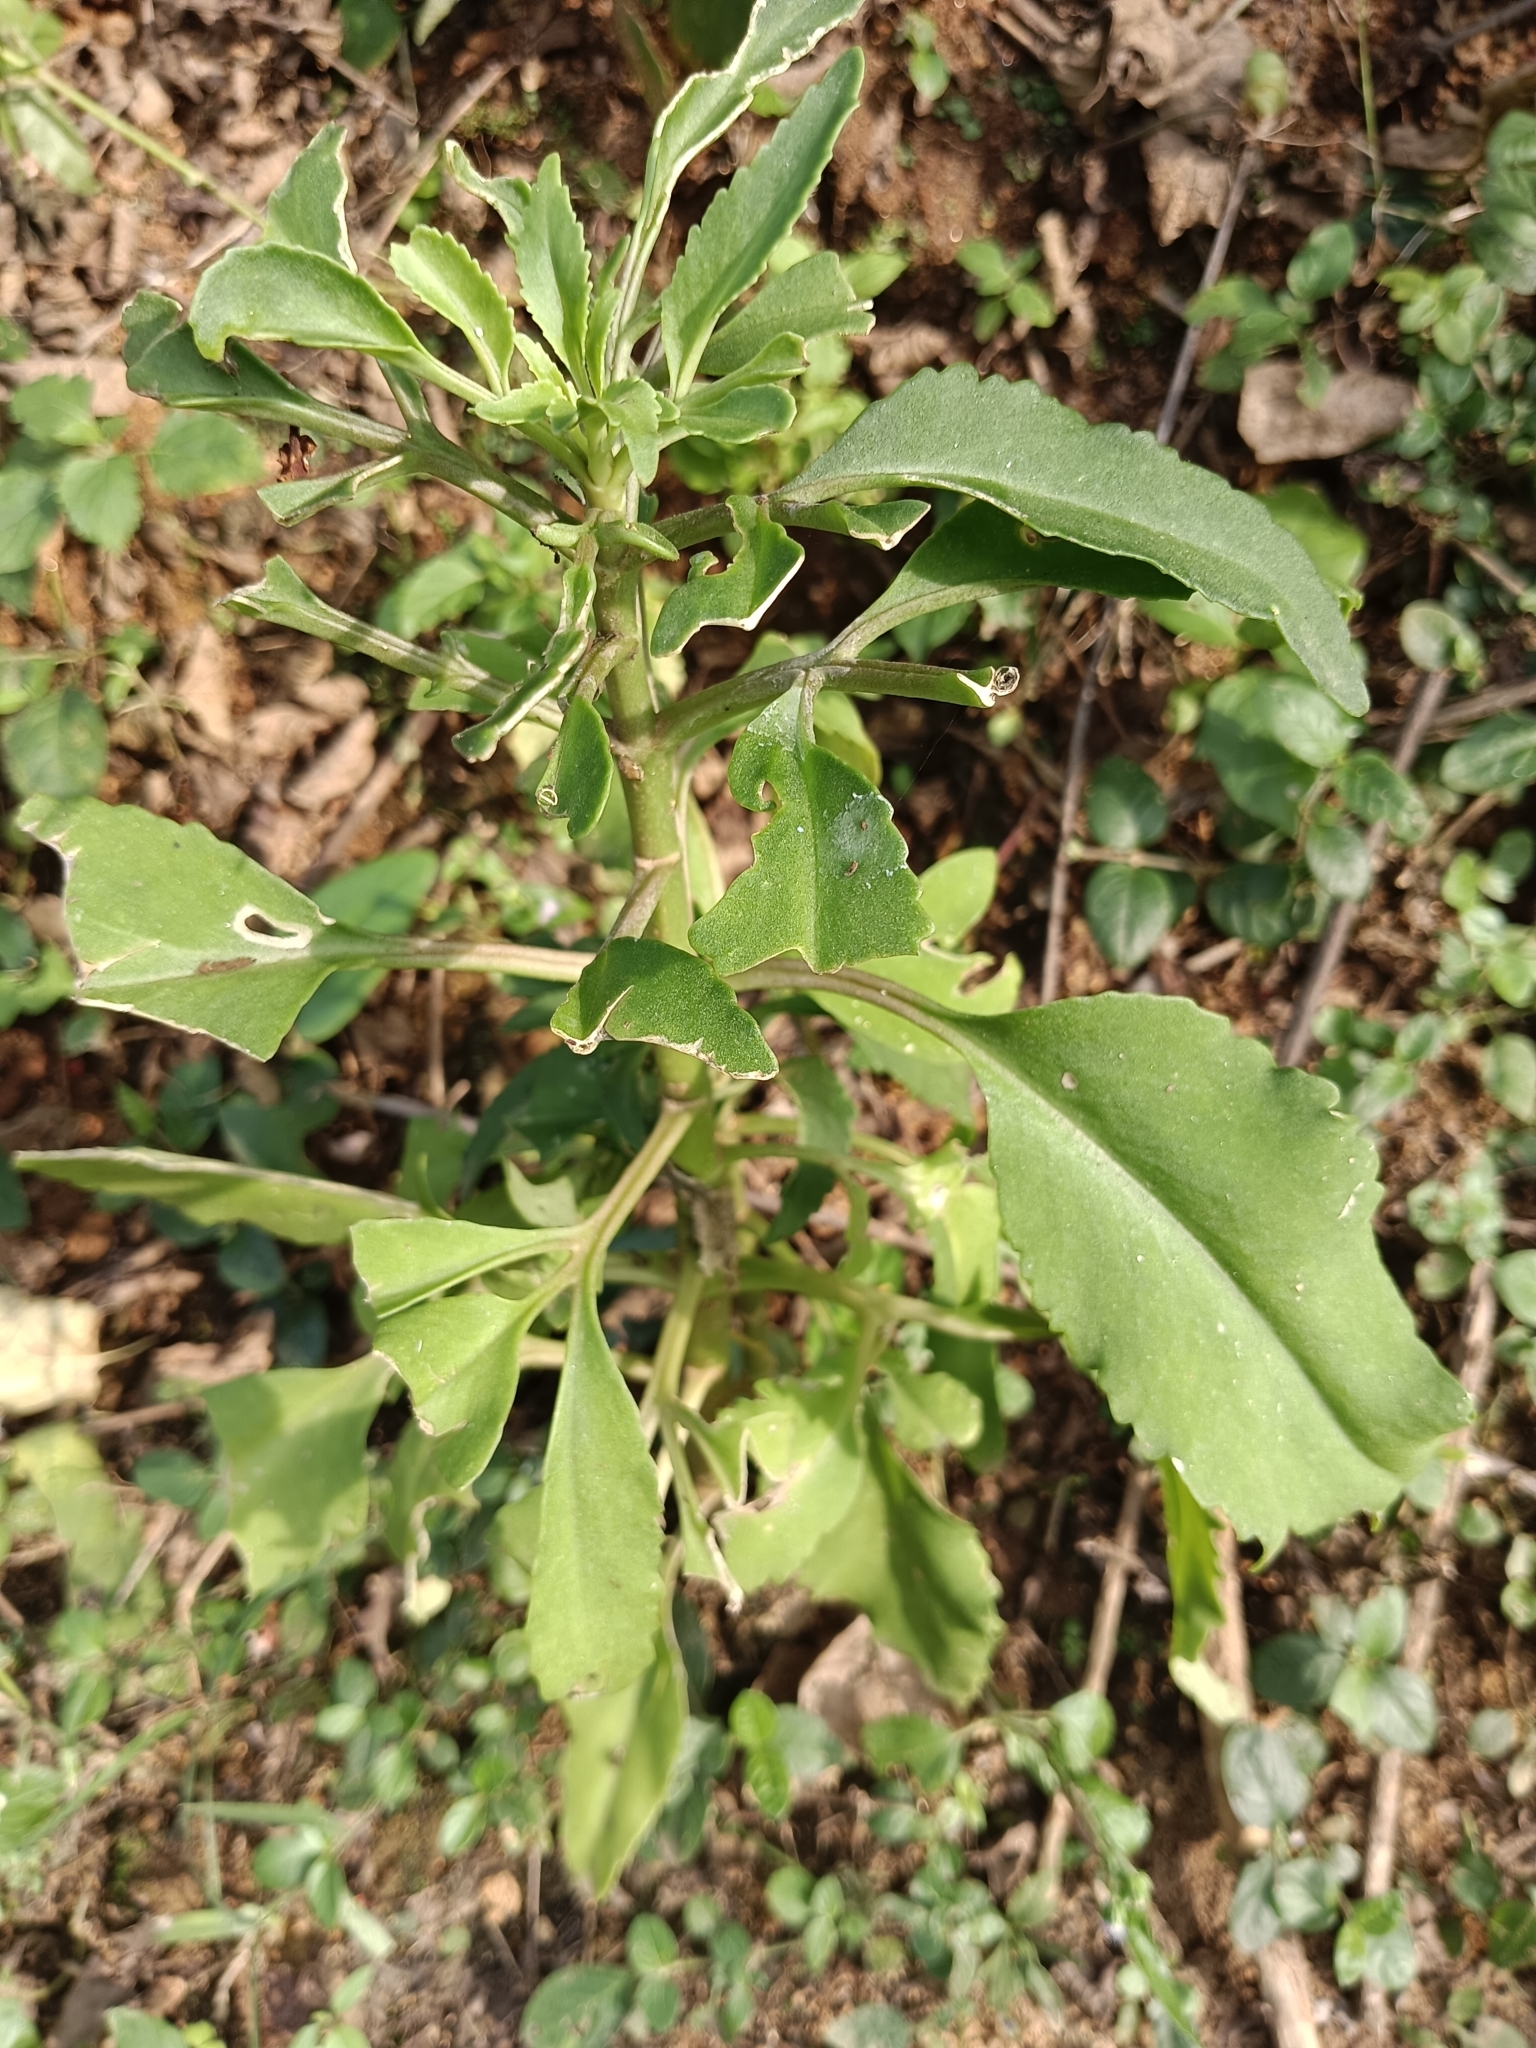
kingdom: Plantae
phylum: Tracheophyta
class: Magnoliopsida
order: Saxifragales
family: Crassulaceae
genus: Kalanchoe
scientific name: Kalanchoe laciniata
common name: Christmastree plant
